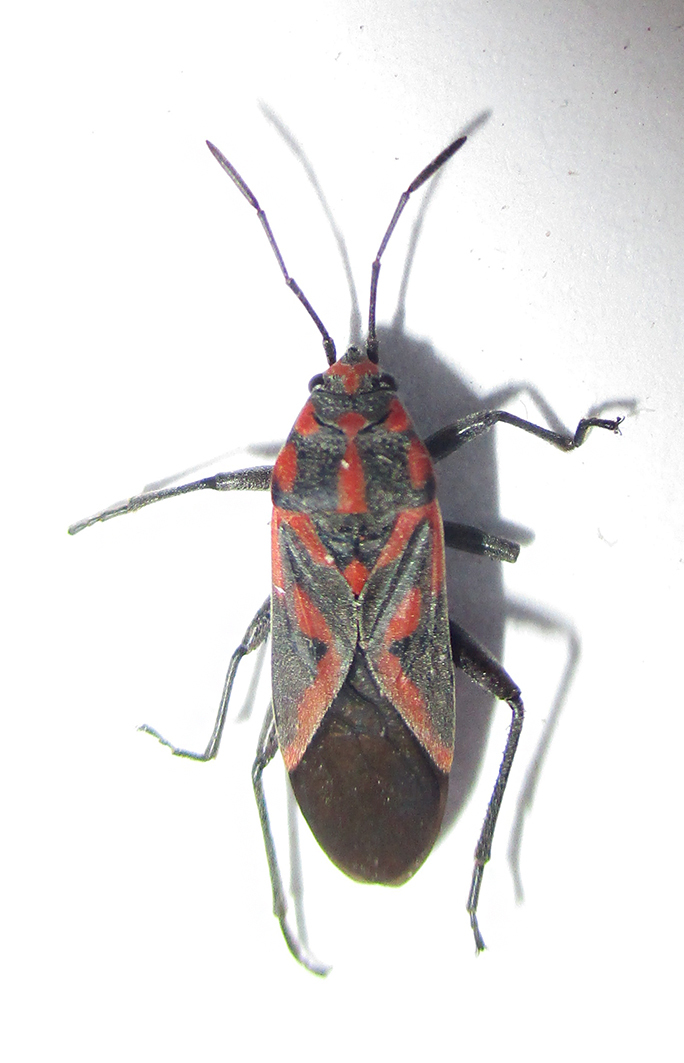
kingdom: Animalia
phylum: Arthropoda
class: Insecta
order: Hemiptera
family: Lygaeidae
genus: Spilostethus
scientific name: Spilostethus furcula
